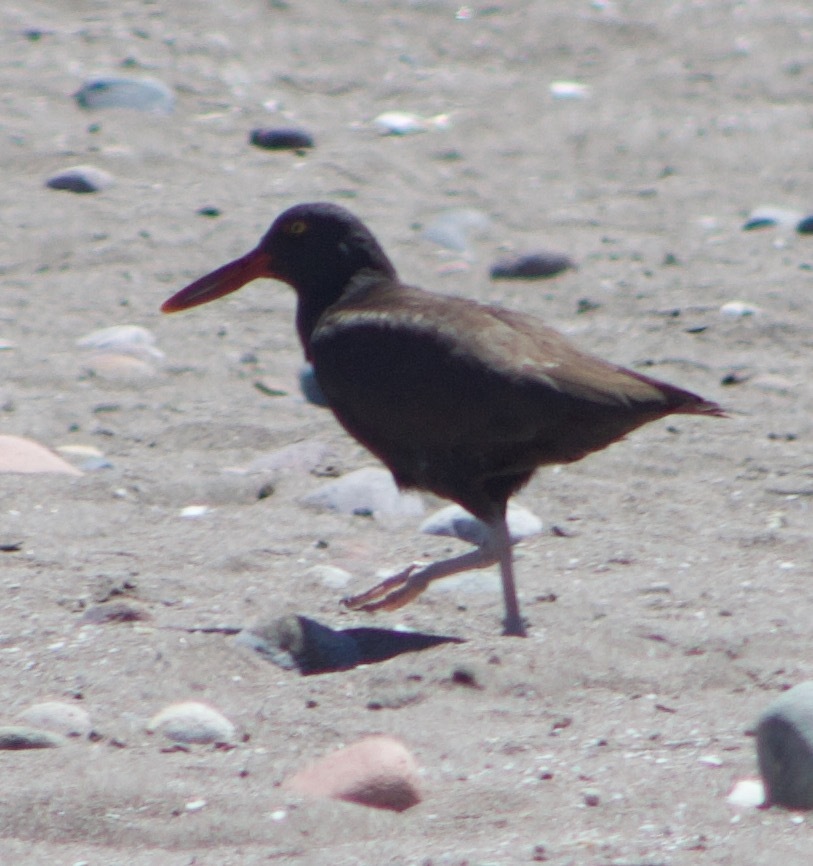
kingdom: Animalia
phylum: Chordata
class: Aves
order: Charadriiformes
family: Haematopodidae
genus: Haematopus
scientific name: Haematopus ater
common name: Blackish oystercatcher
